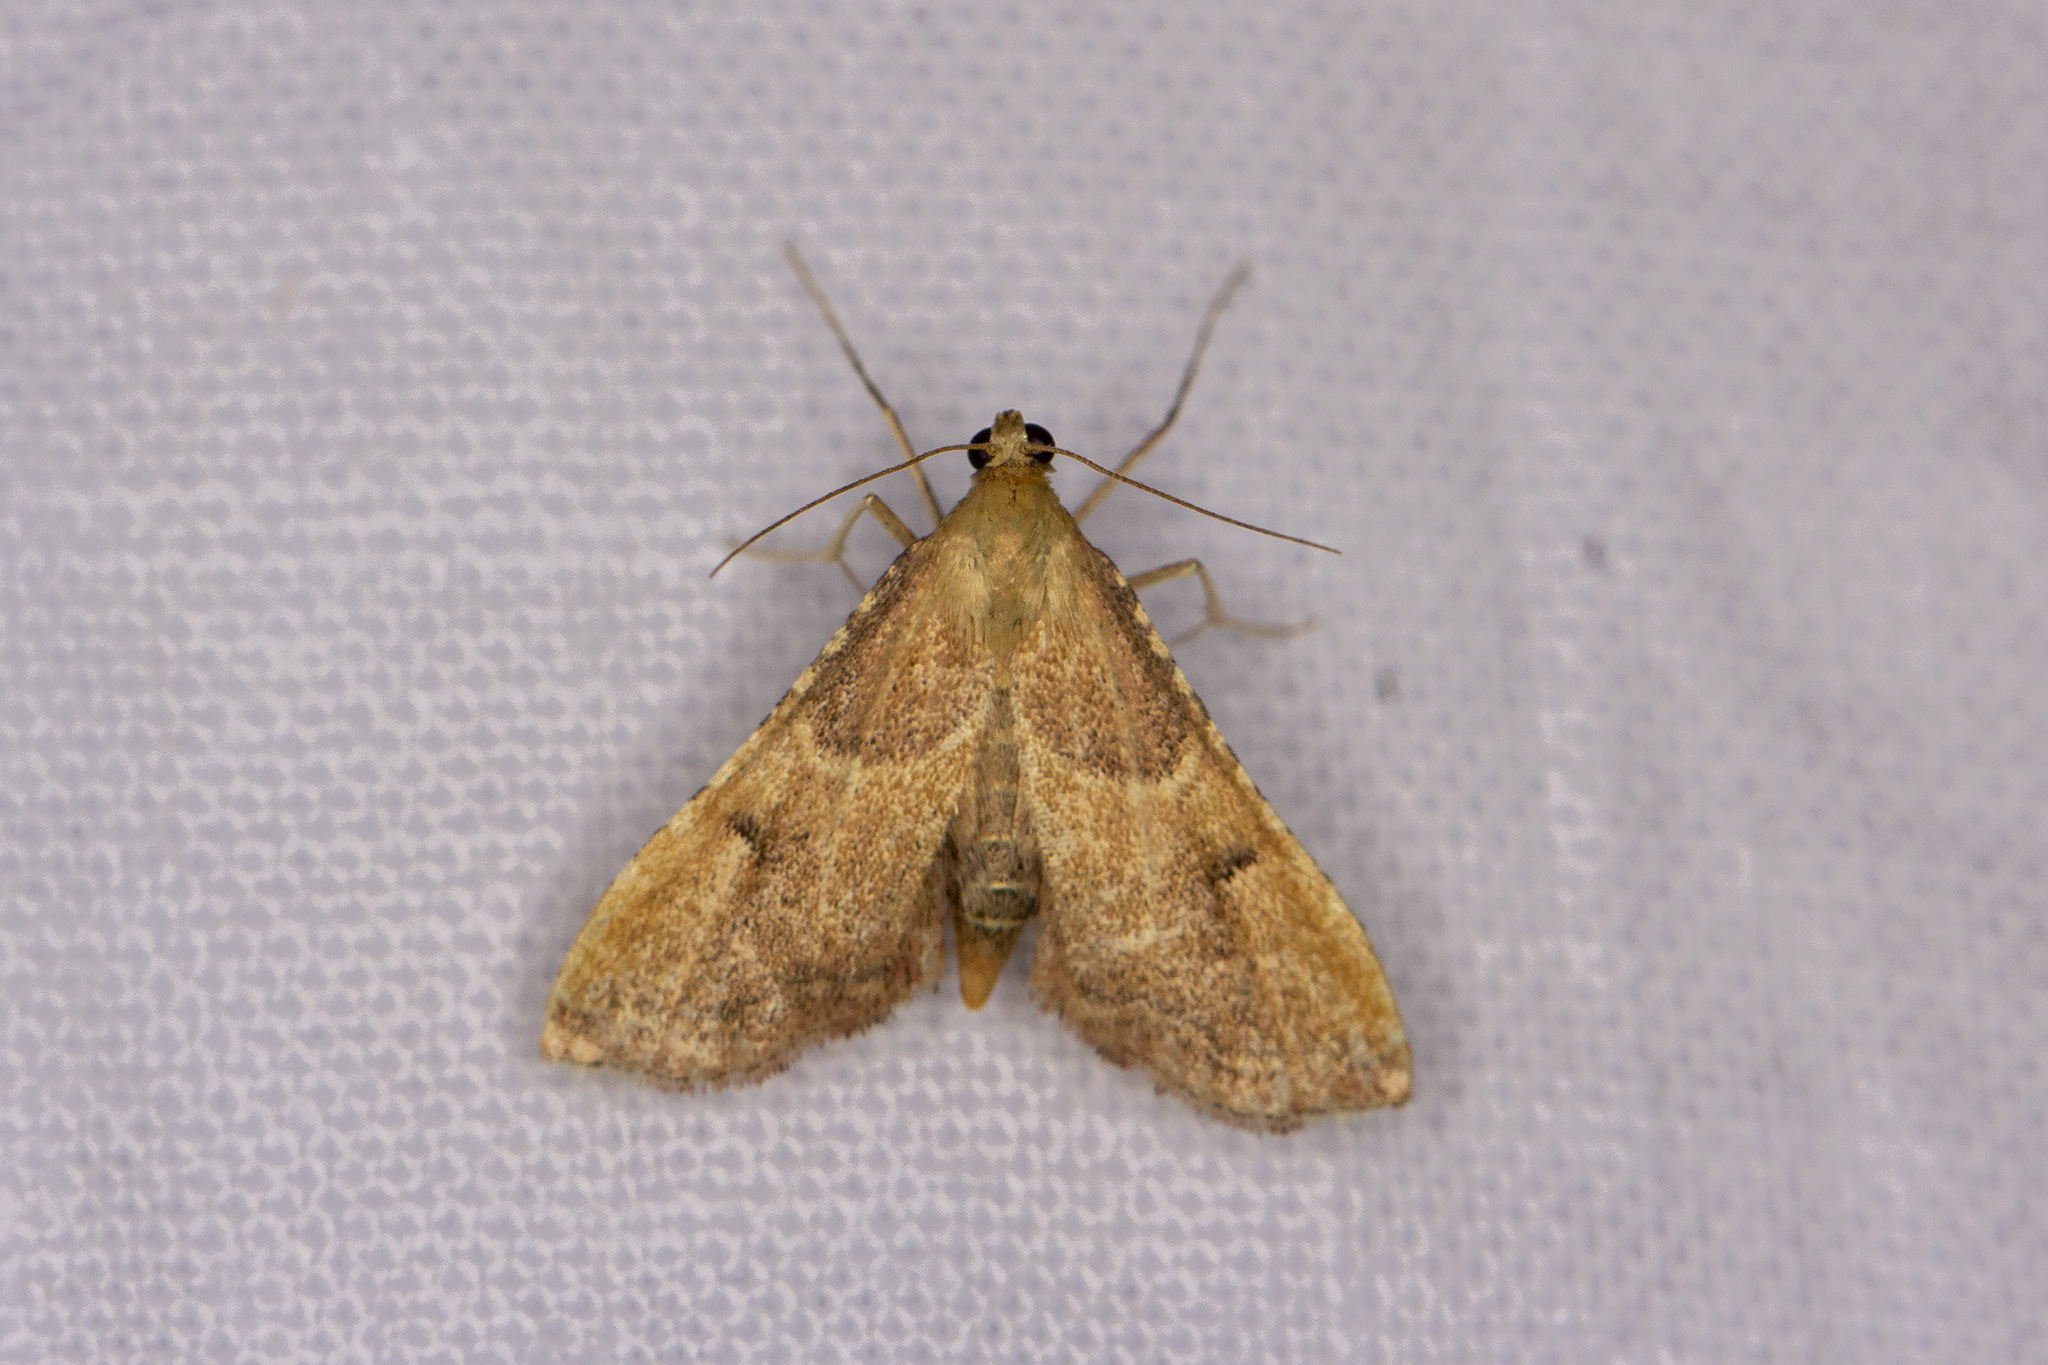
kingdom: Animalia
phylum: Arthropoda
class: Insecta
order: Lepidoptera
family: Pyralidae
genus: Endotricha
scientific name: Endotricha flammealis
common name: Rosy tabby
